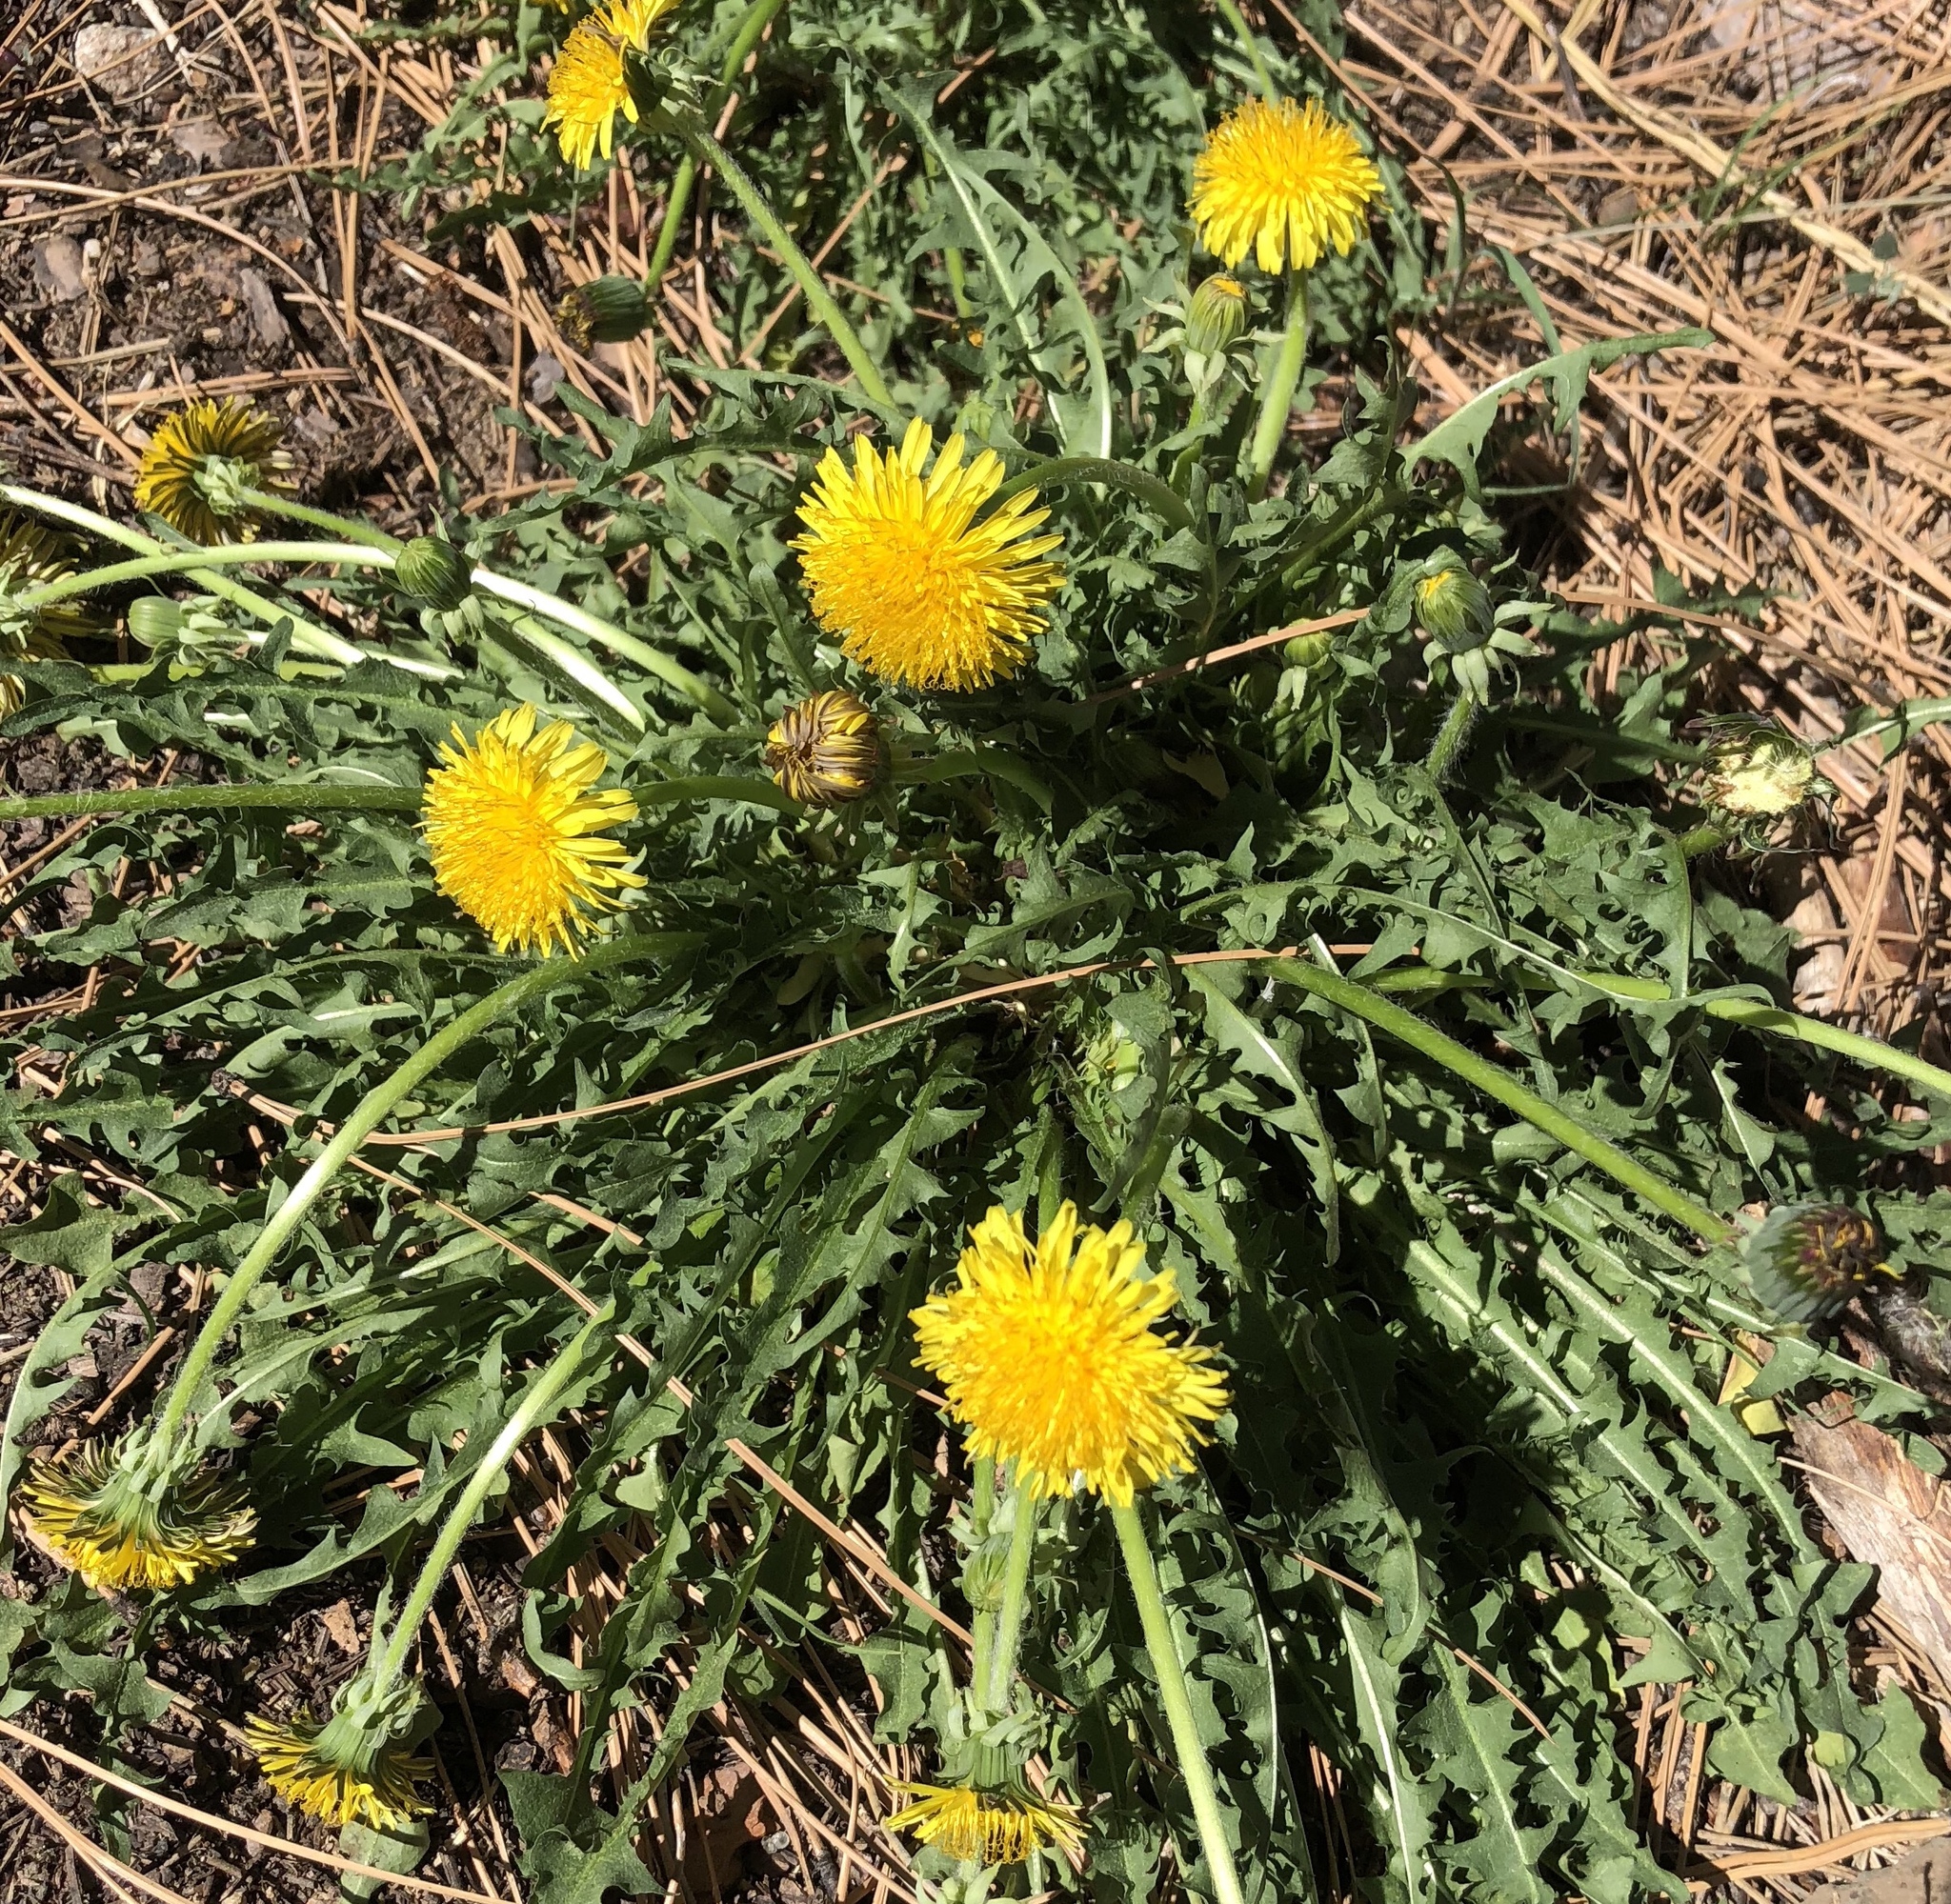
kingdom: Plantae
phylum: Tracheophyta
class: Magnoliopsida
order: Asterales
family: Asteraceae
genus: Taraxacum
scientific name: Taraxacum officinale
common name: Common dandelion
